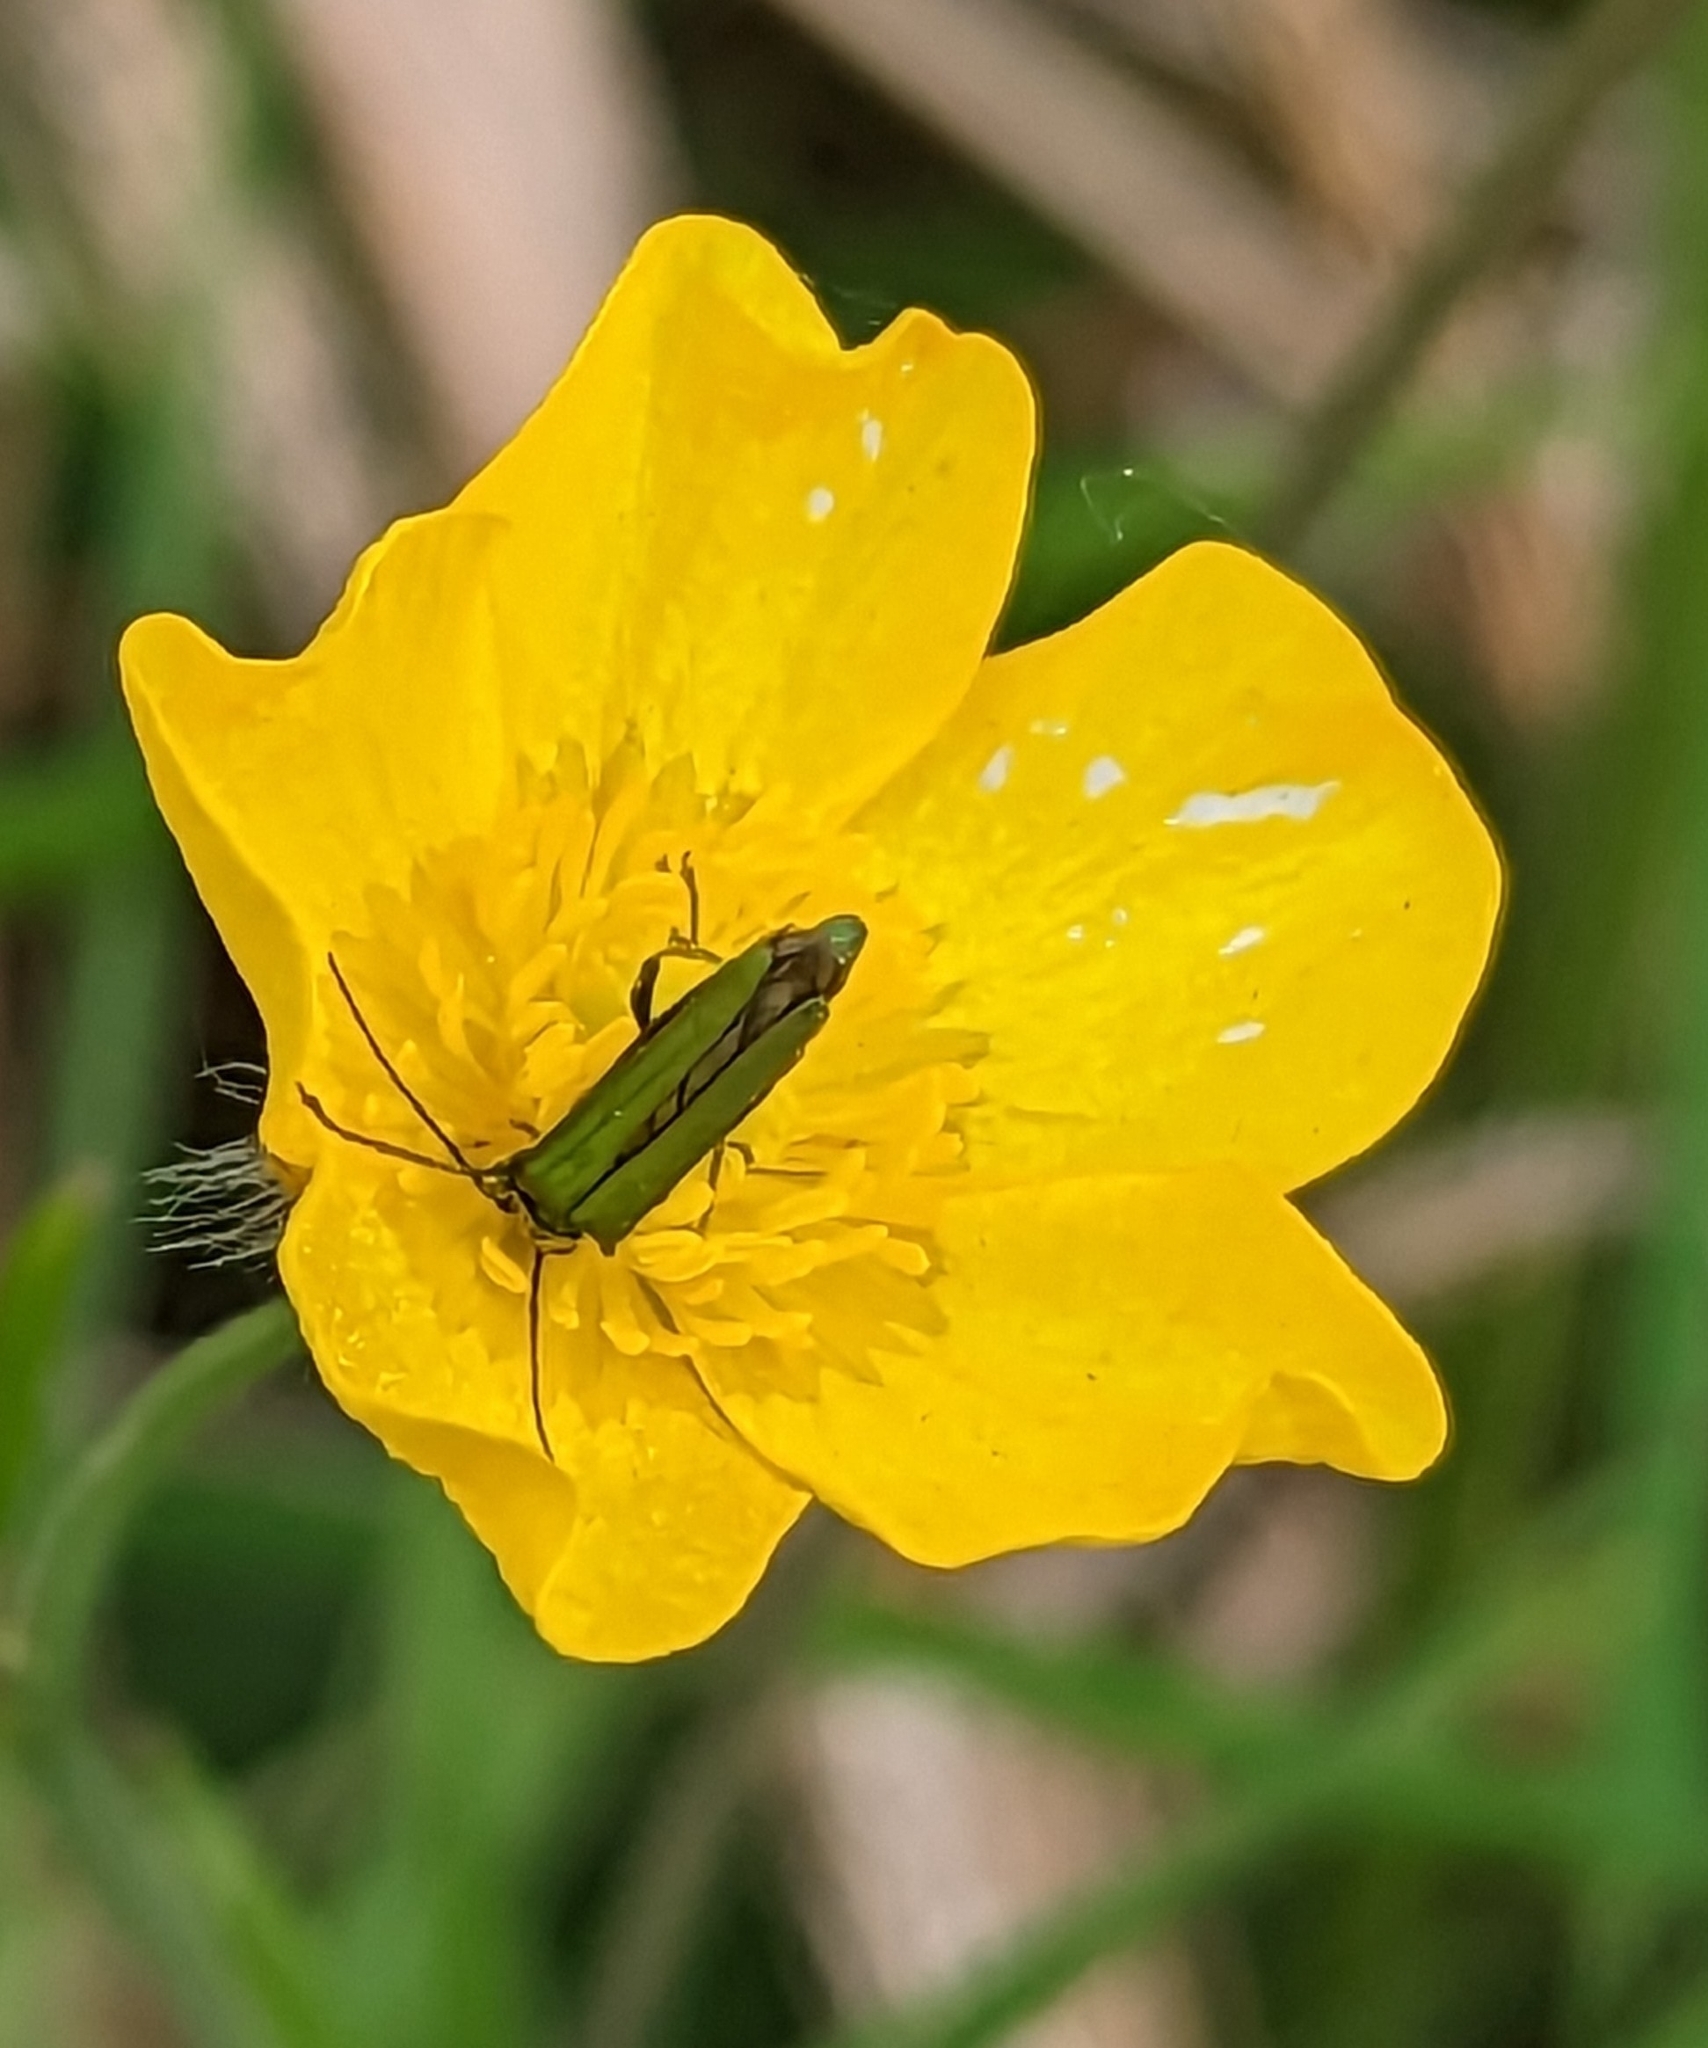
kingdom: Animalia
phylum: Arthropoda
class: Insecta
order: Coleoptera
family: Oedemeridae
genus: Oedemera
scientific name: Oedemera nobilis
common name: Swollen-thighed beetle
